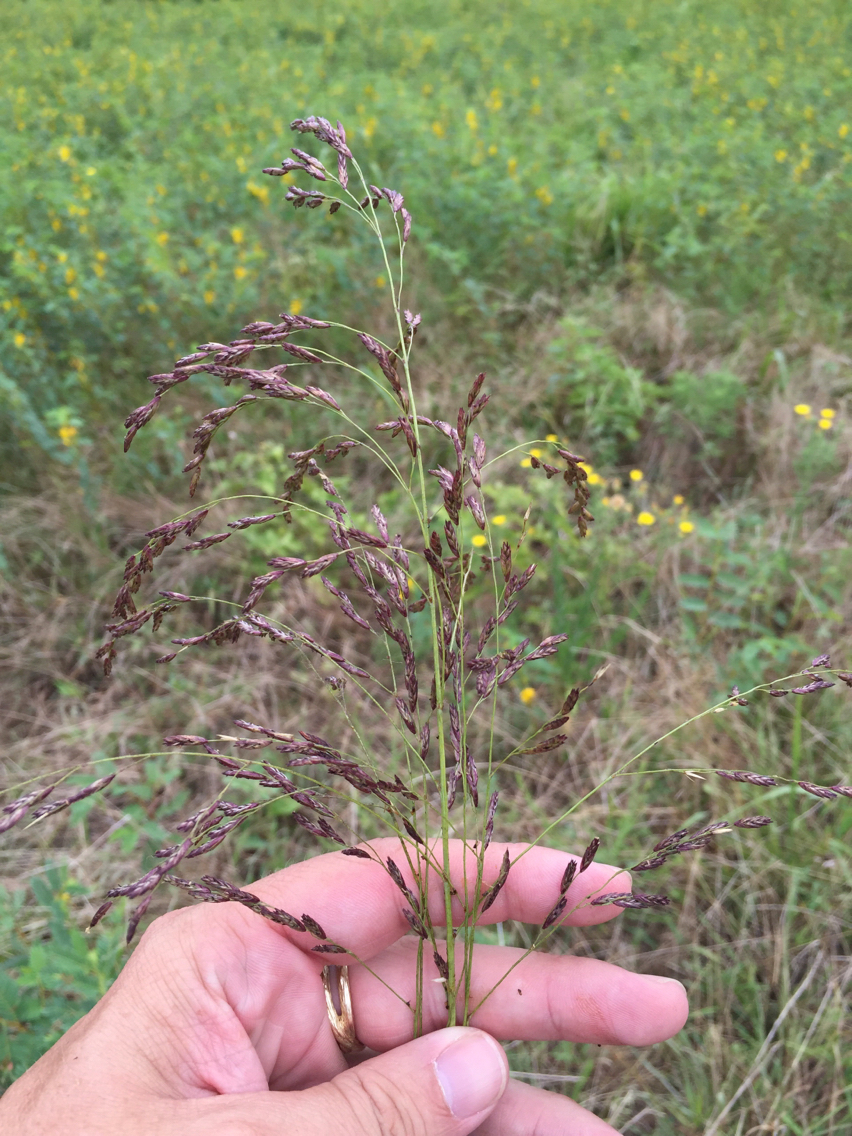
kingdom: Plantae
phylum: Tracheophyta
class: Liliopsida
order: Poales
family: Poaceae
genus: Tridens
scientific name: Tridens flavus
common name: Purpletop
